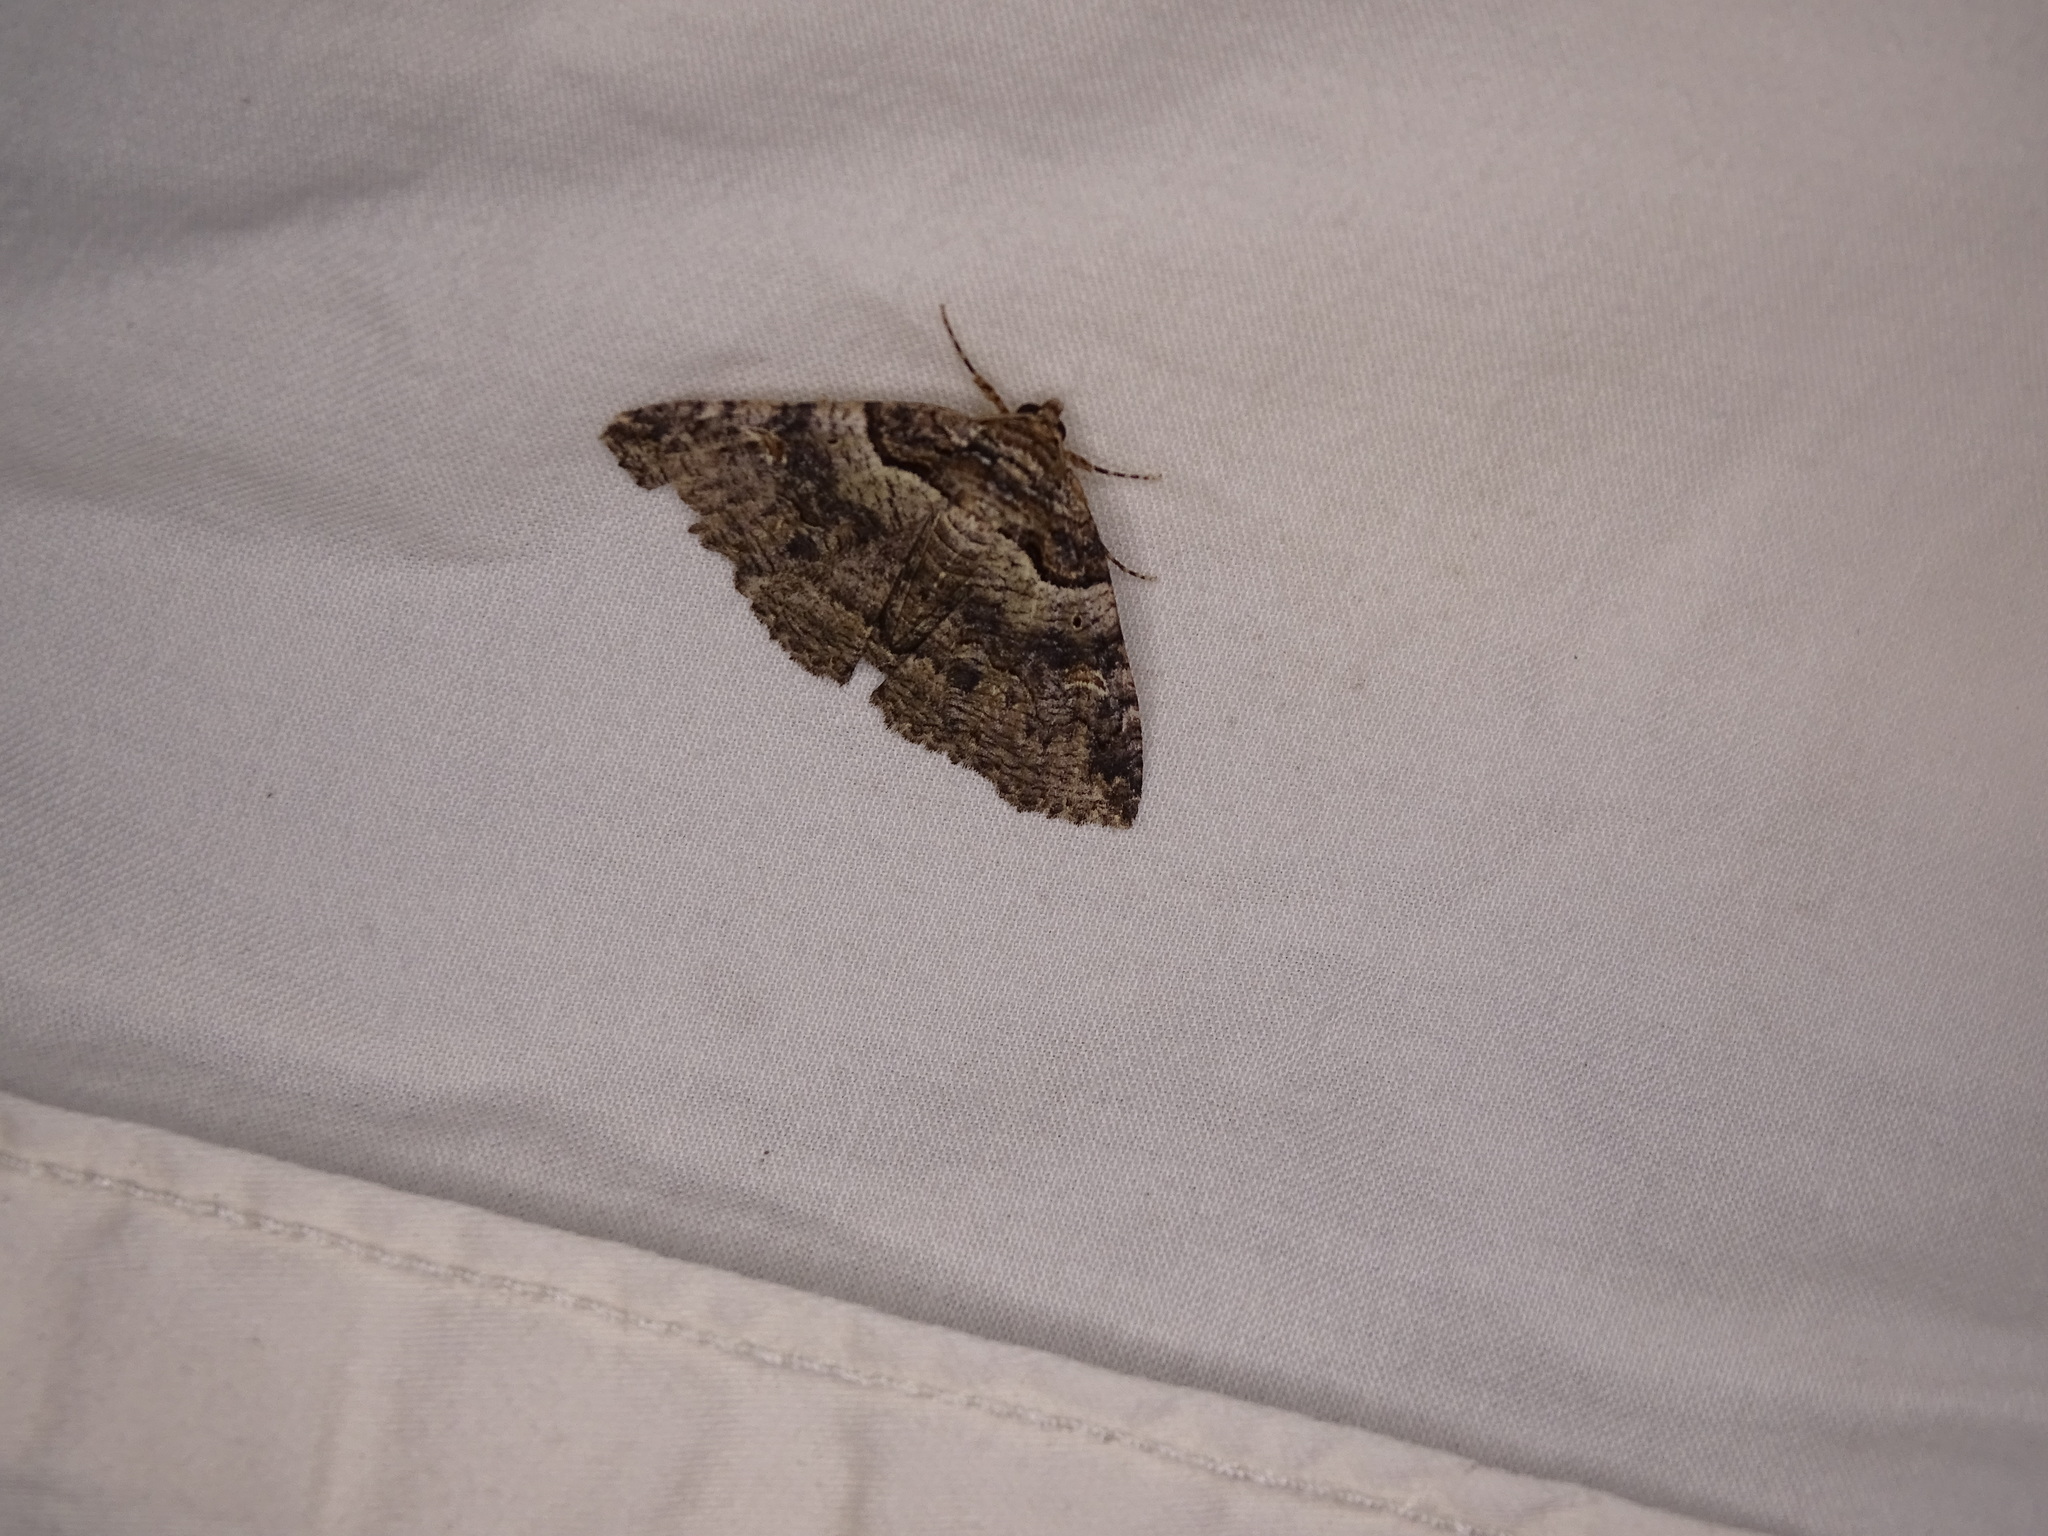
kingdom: Animalia
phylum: Arthropoda
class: Insecta
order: Lepidoptera
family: Erebidae
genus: Zale
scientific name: Zale galbanata
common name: Maple zale
